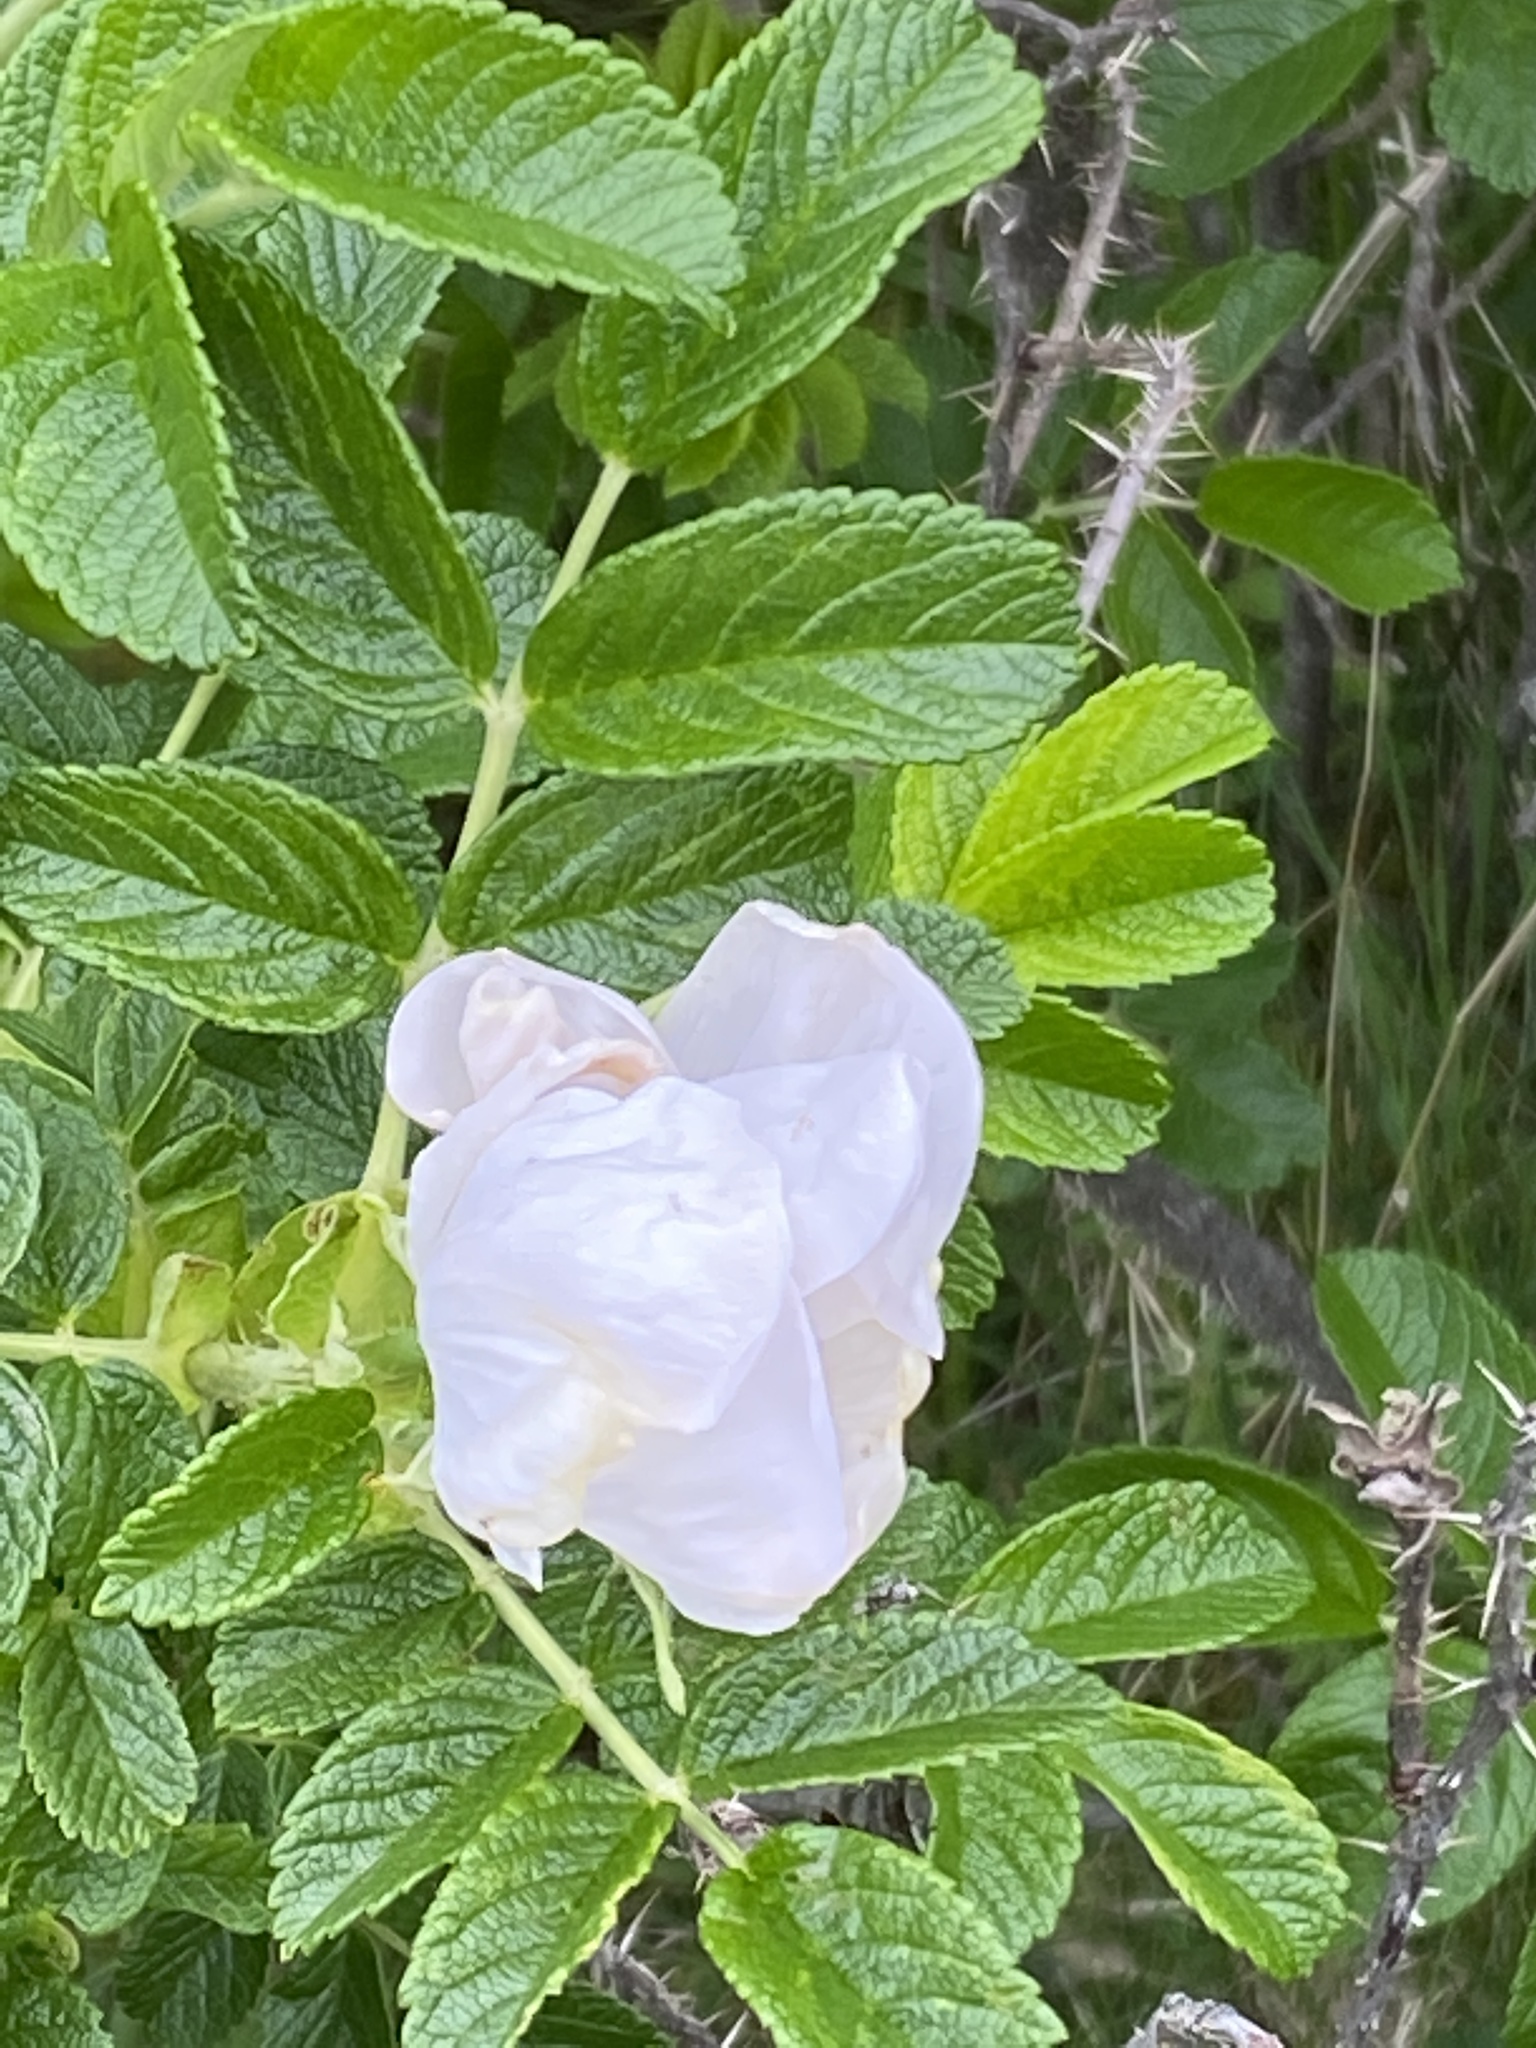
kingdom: Plantae
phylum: Tracheophyta
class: Magnoliopsida
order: Rosales
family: Rosaceae
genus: Rosa
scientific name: Rosa rugosa
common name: Japanese rose
